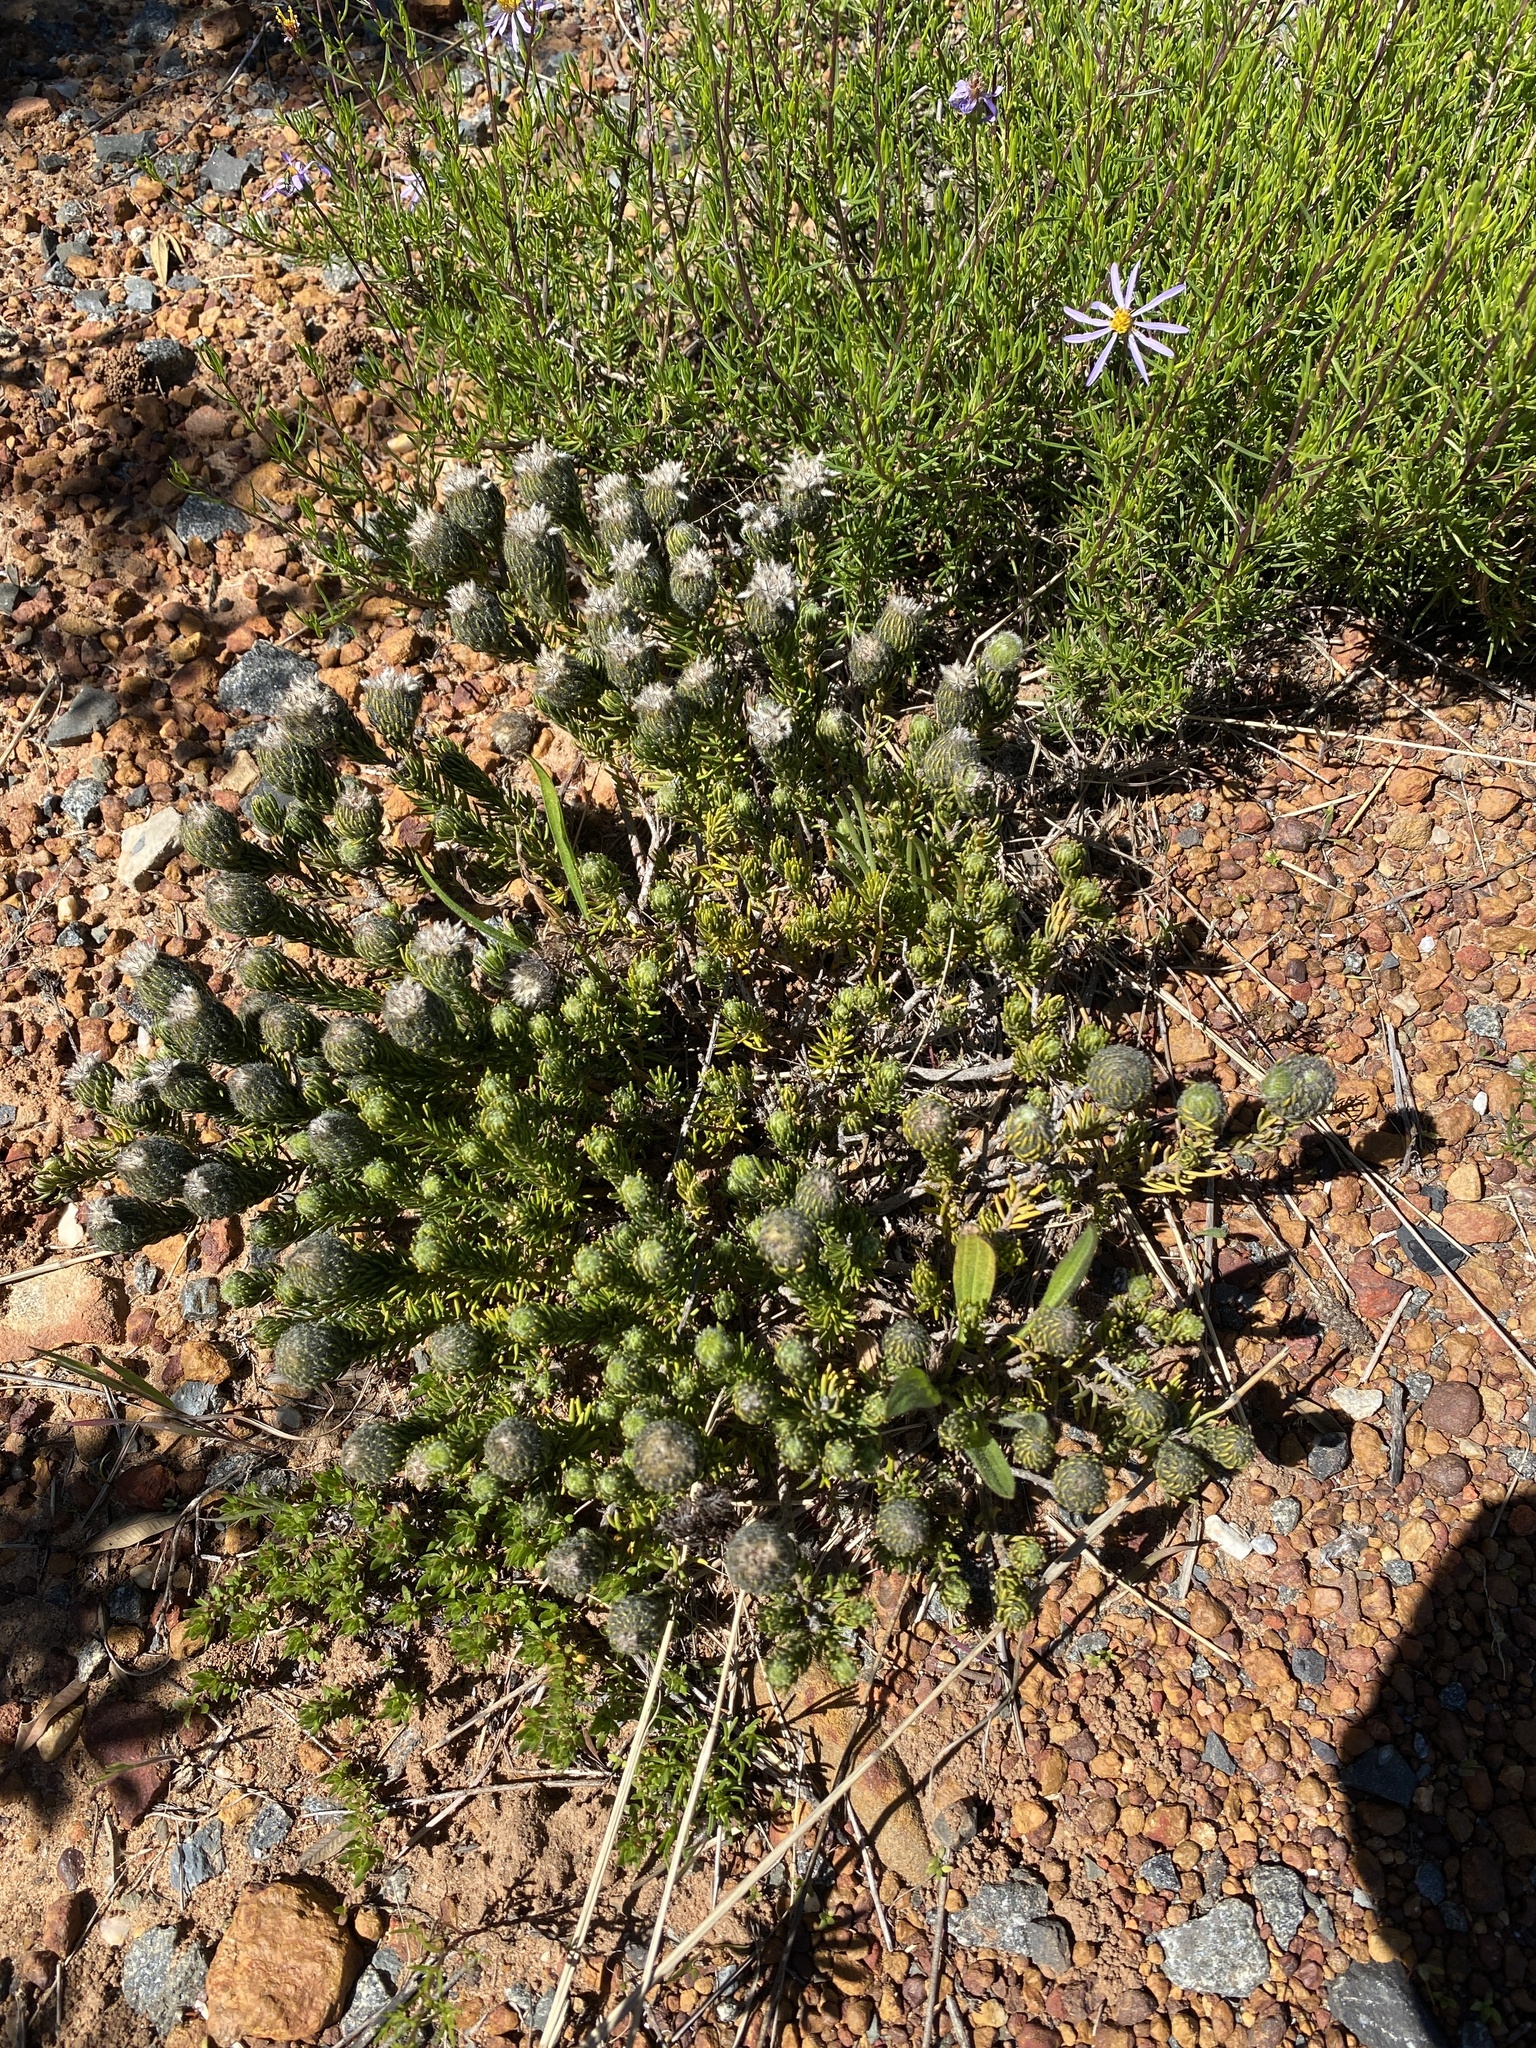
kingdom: Plantae
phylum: Tracheophyta
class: Magnoliopsida
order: Rosales
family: Rhamnaceae
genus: Phylica
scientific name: Phylica affinis
